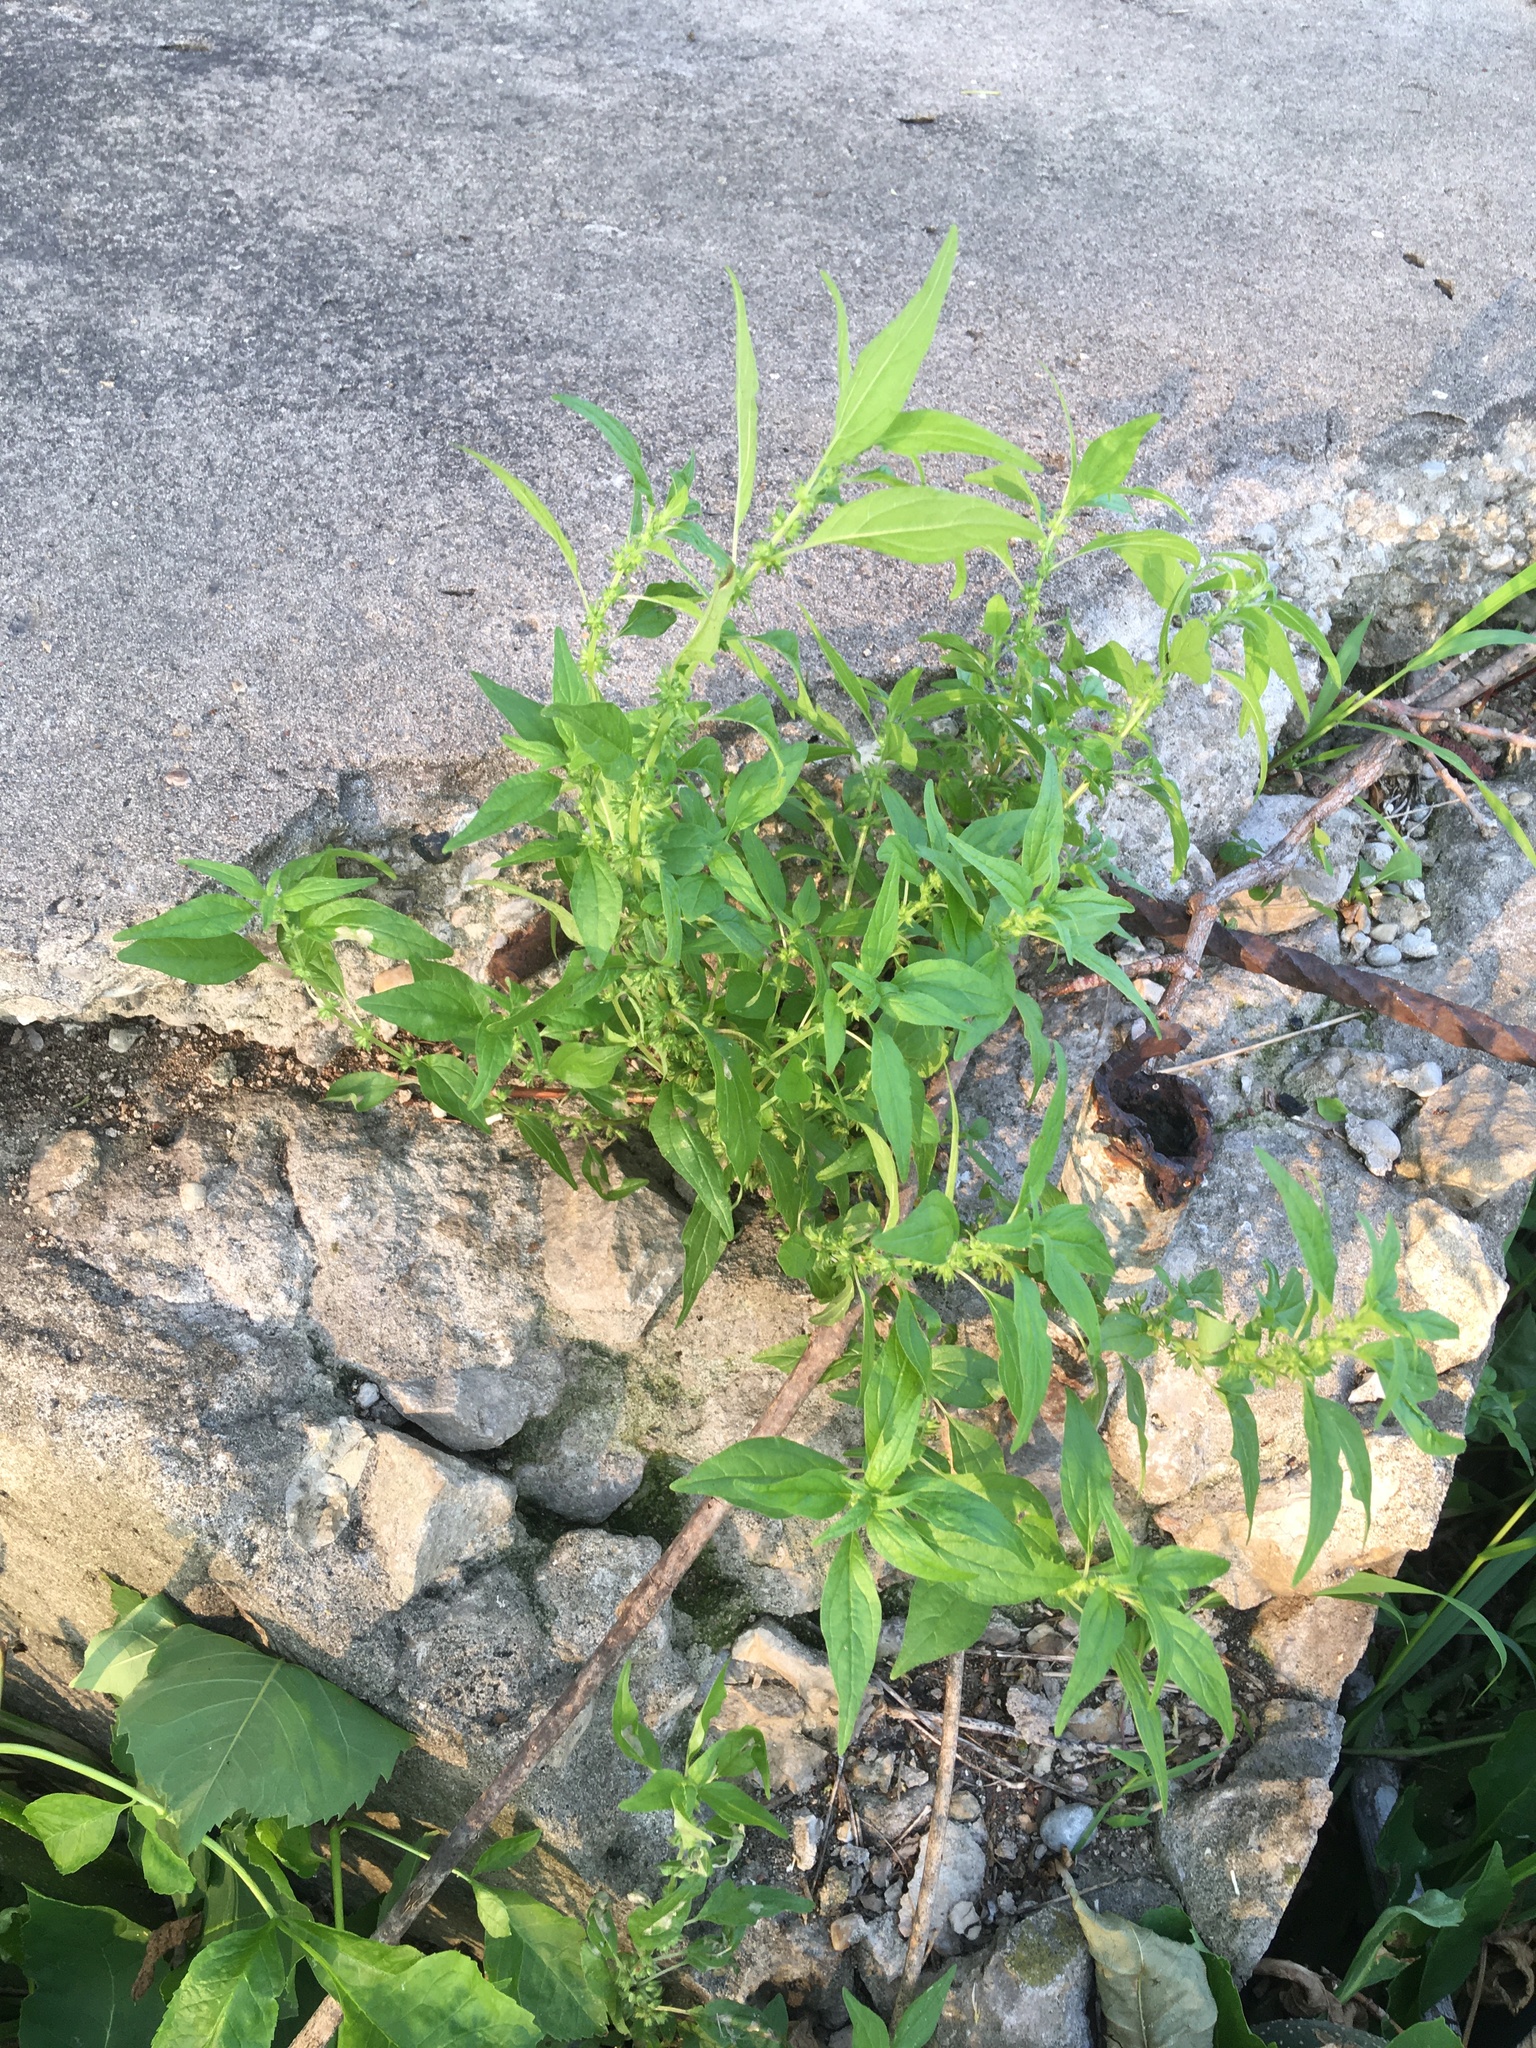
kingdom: Plantae
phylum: Tracheophyta
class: Magnoliopsida
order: Rosales
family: Urticaceae
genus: Parietaria
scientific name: Parietaria pensylvanica
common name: Pennsylvania pellitory
